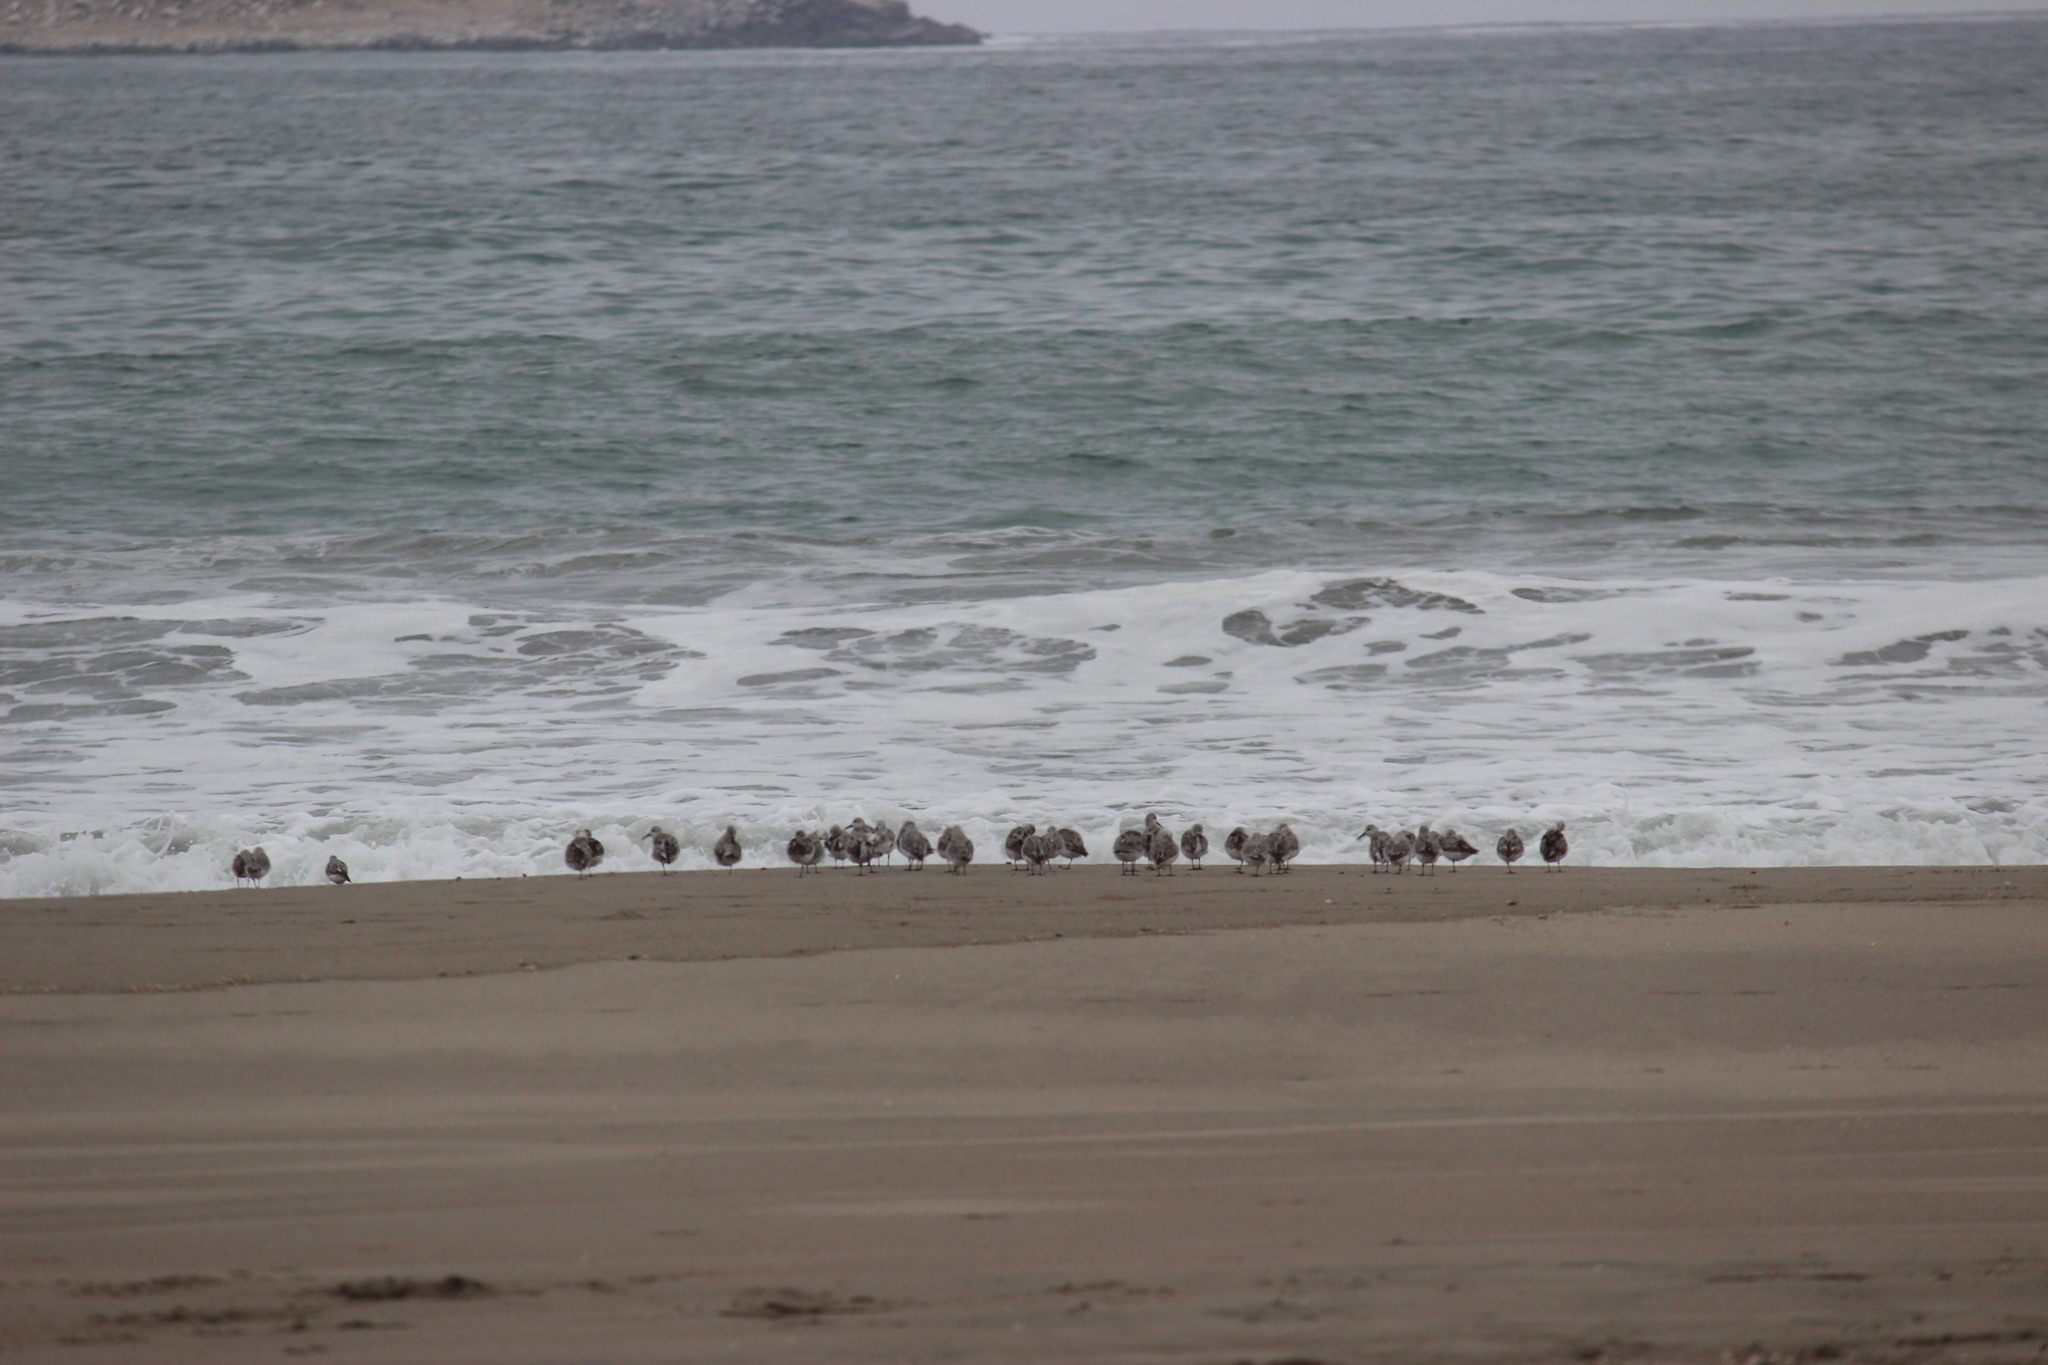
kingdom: Animalia
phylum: Chordata
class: Aves
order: Charadriiformes
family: Scolopacidae
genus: Calidris
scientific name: Calidris alba
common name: Sanderling
